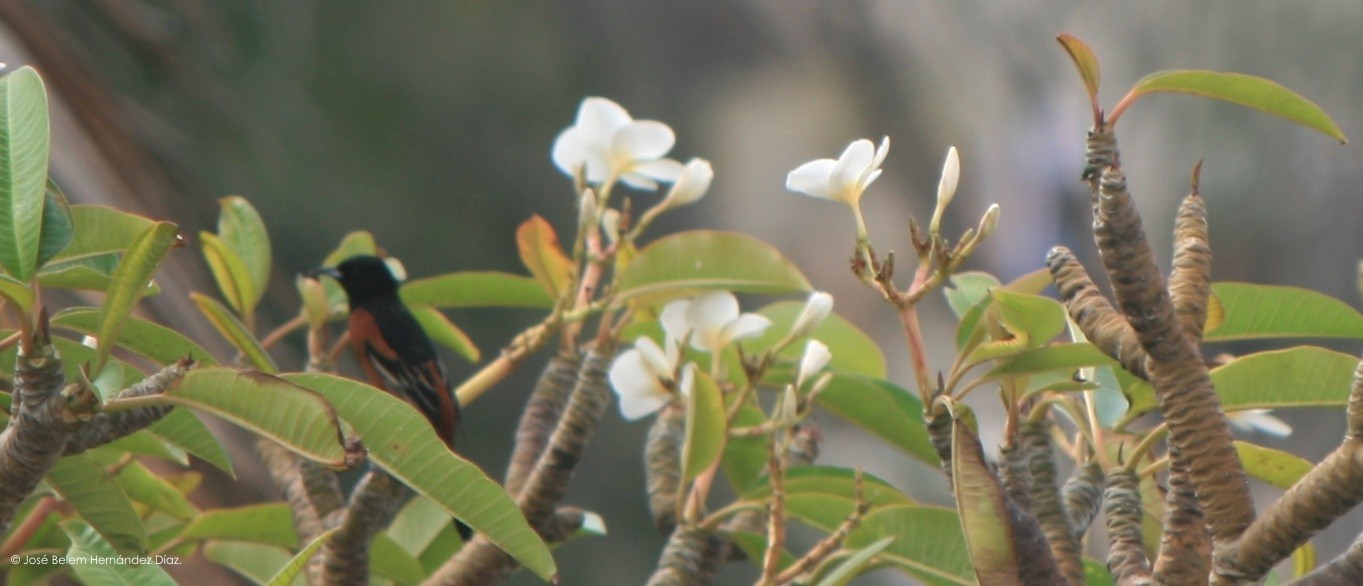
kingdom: Animalia
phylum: Chordata
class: Aves
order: Passeriformes
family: Icteridae
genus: Icterus
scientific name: Icterus spurius
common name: Orchard oriole
